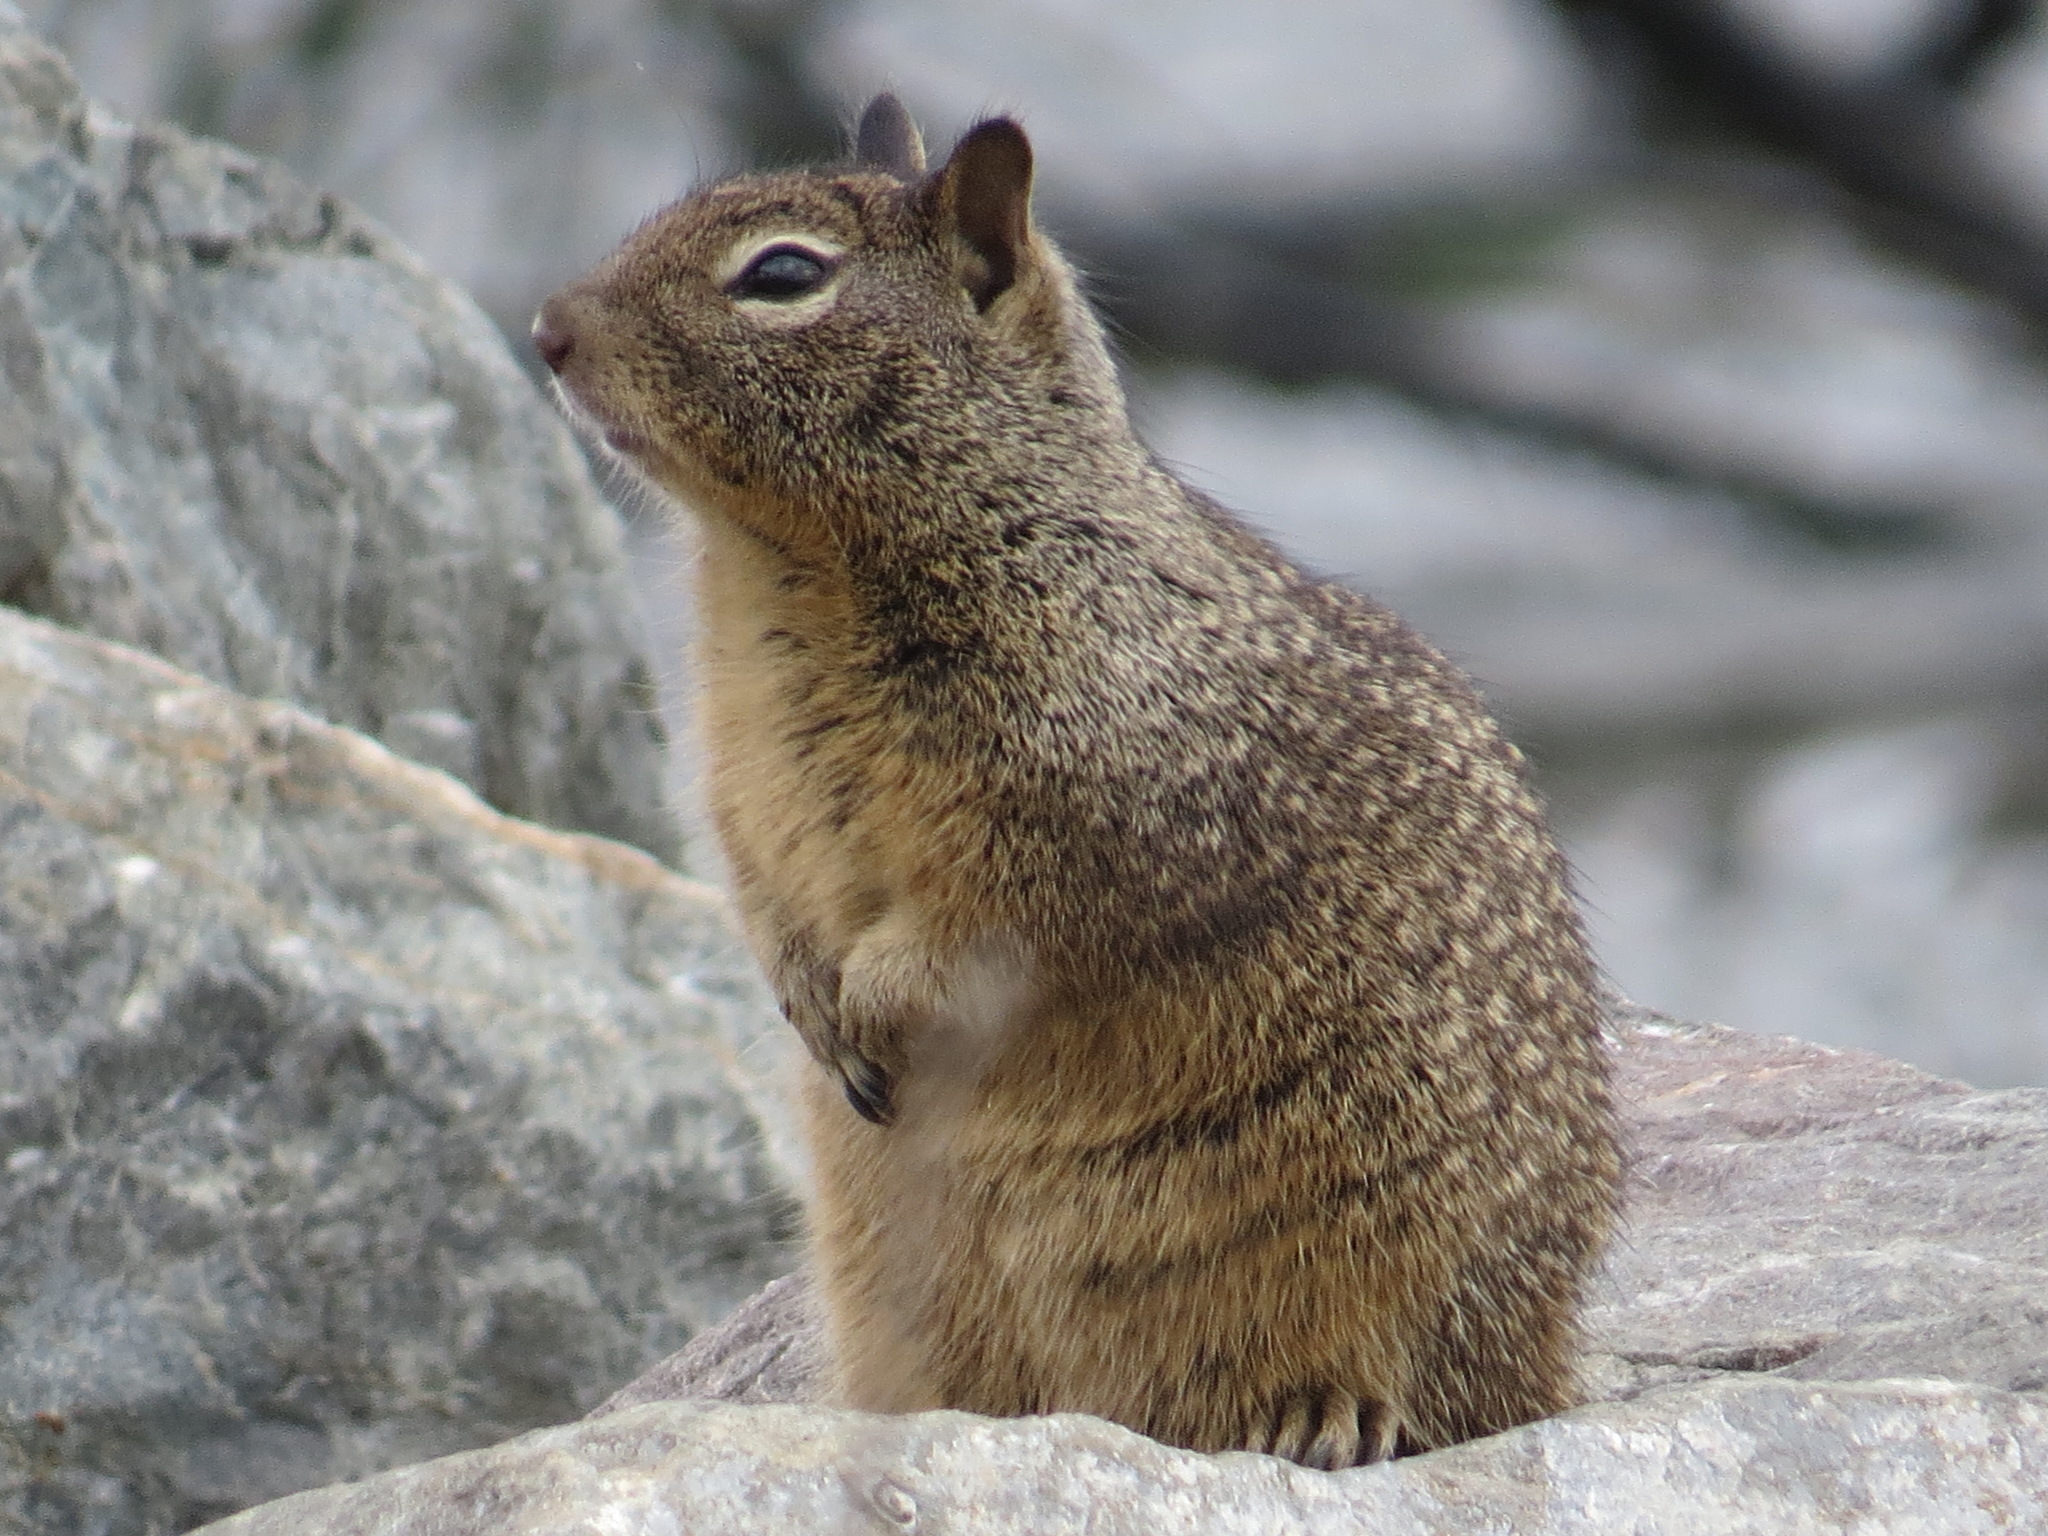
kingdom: Animalia
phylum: Chordata
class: Mammalia
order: Rodentia
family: Sciuridae
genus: Otospermophilus
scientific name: Otospermophilus beecheyi
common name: California ground squirrel
